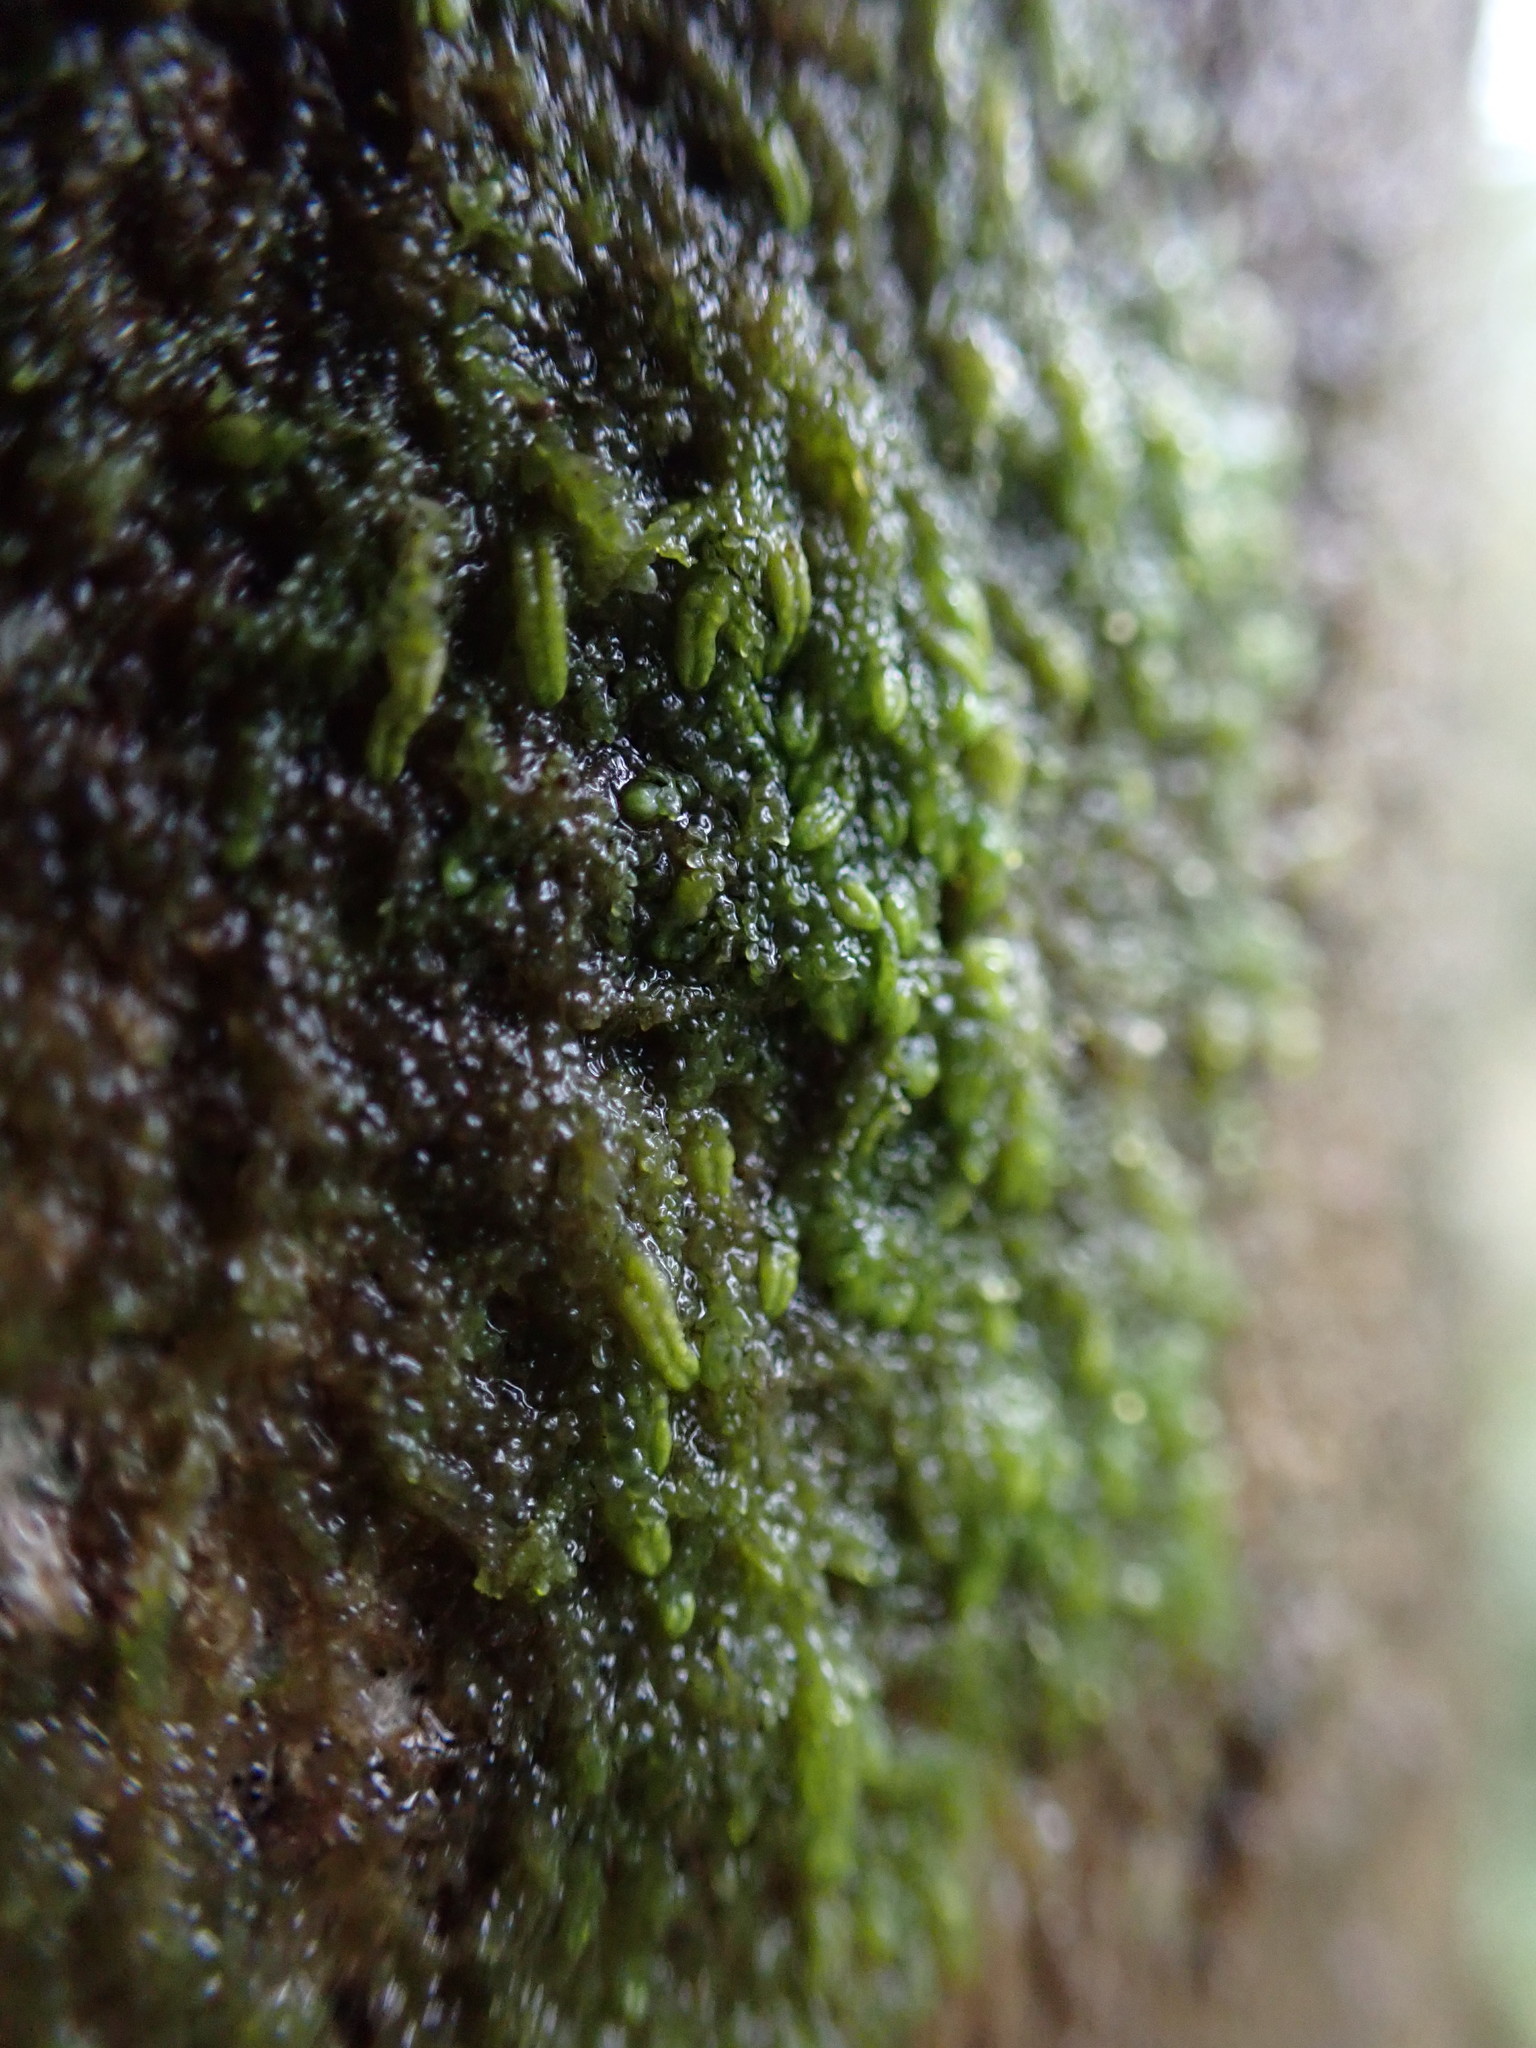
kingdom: Plantae
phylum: Marchantiophyta
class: Jungermanniopsida
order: Porellales
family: Radulaceae
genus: Radula
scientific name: Radula bolanderi
